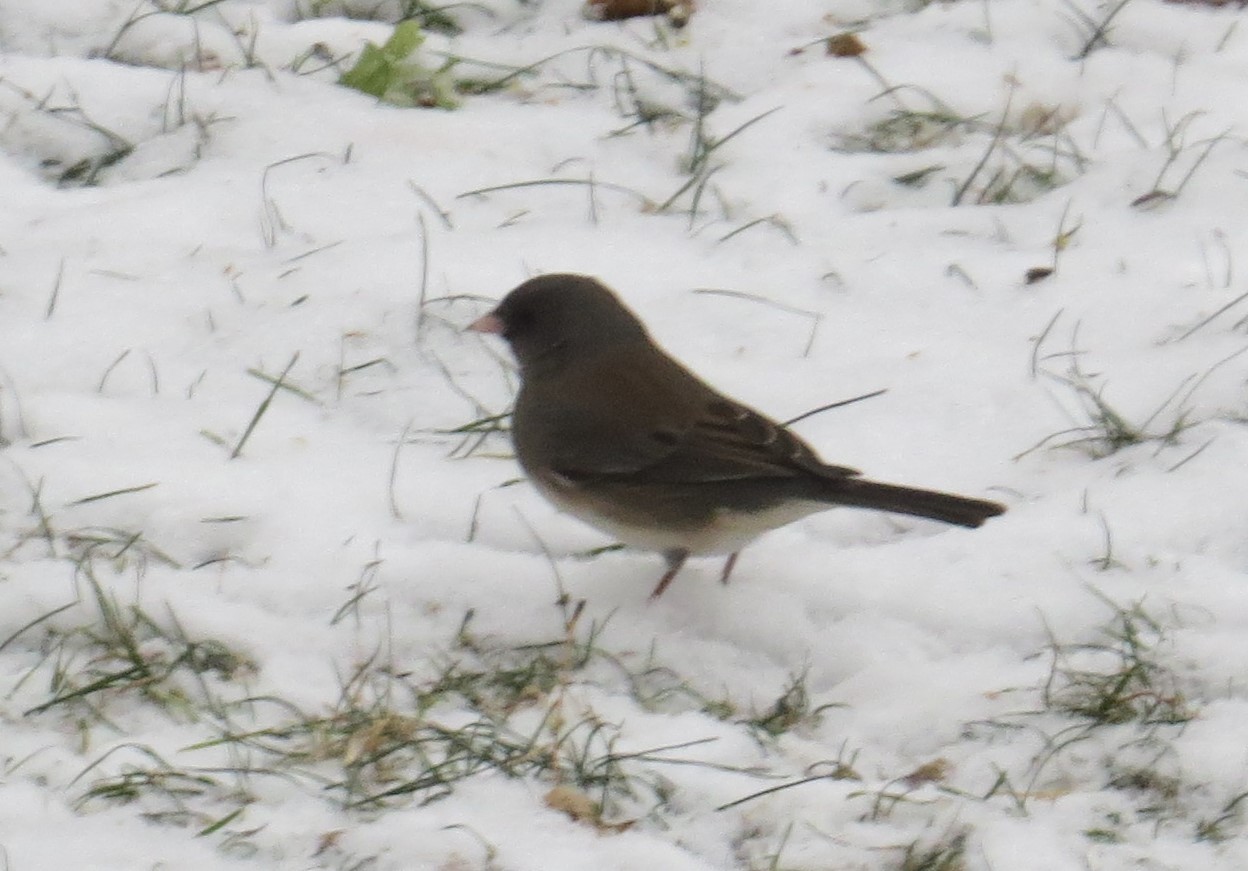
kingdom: Animalia
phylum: Chordata
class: Aves
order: Passeriformes
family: Passerellidae
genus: Junco
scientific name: Junco hyemalis
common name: Dark-eyed junco
